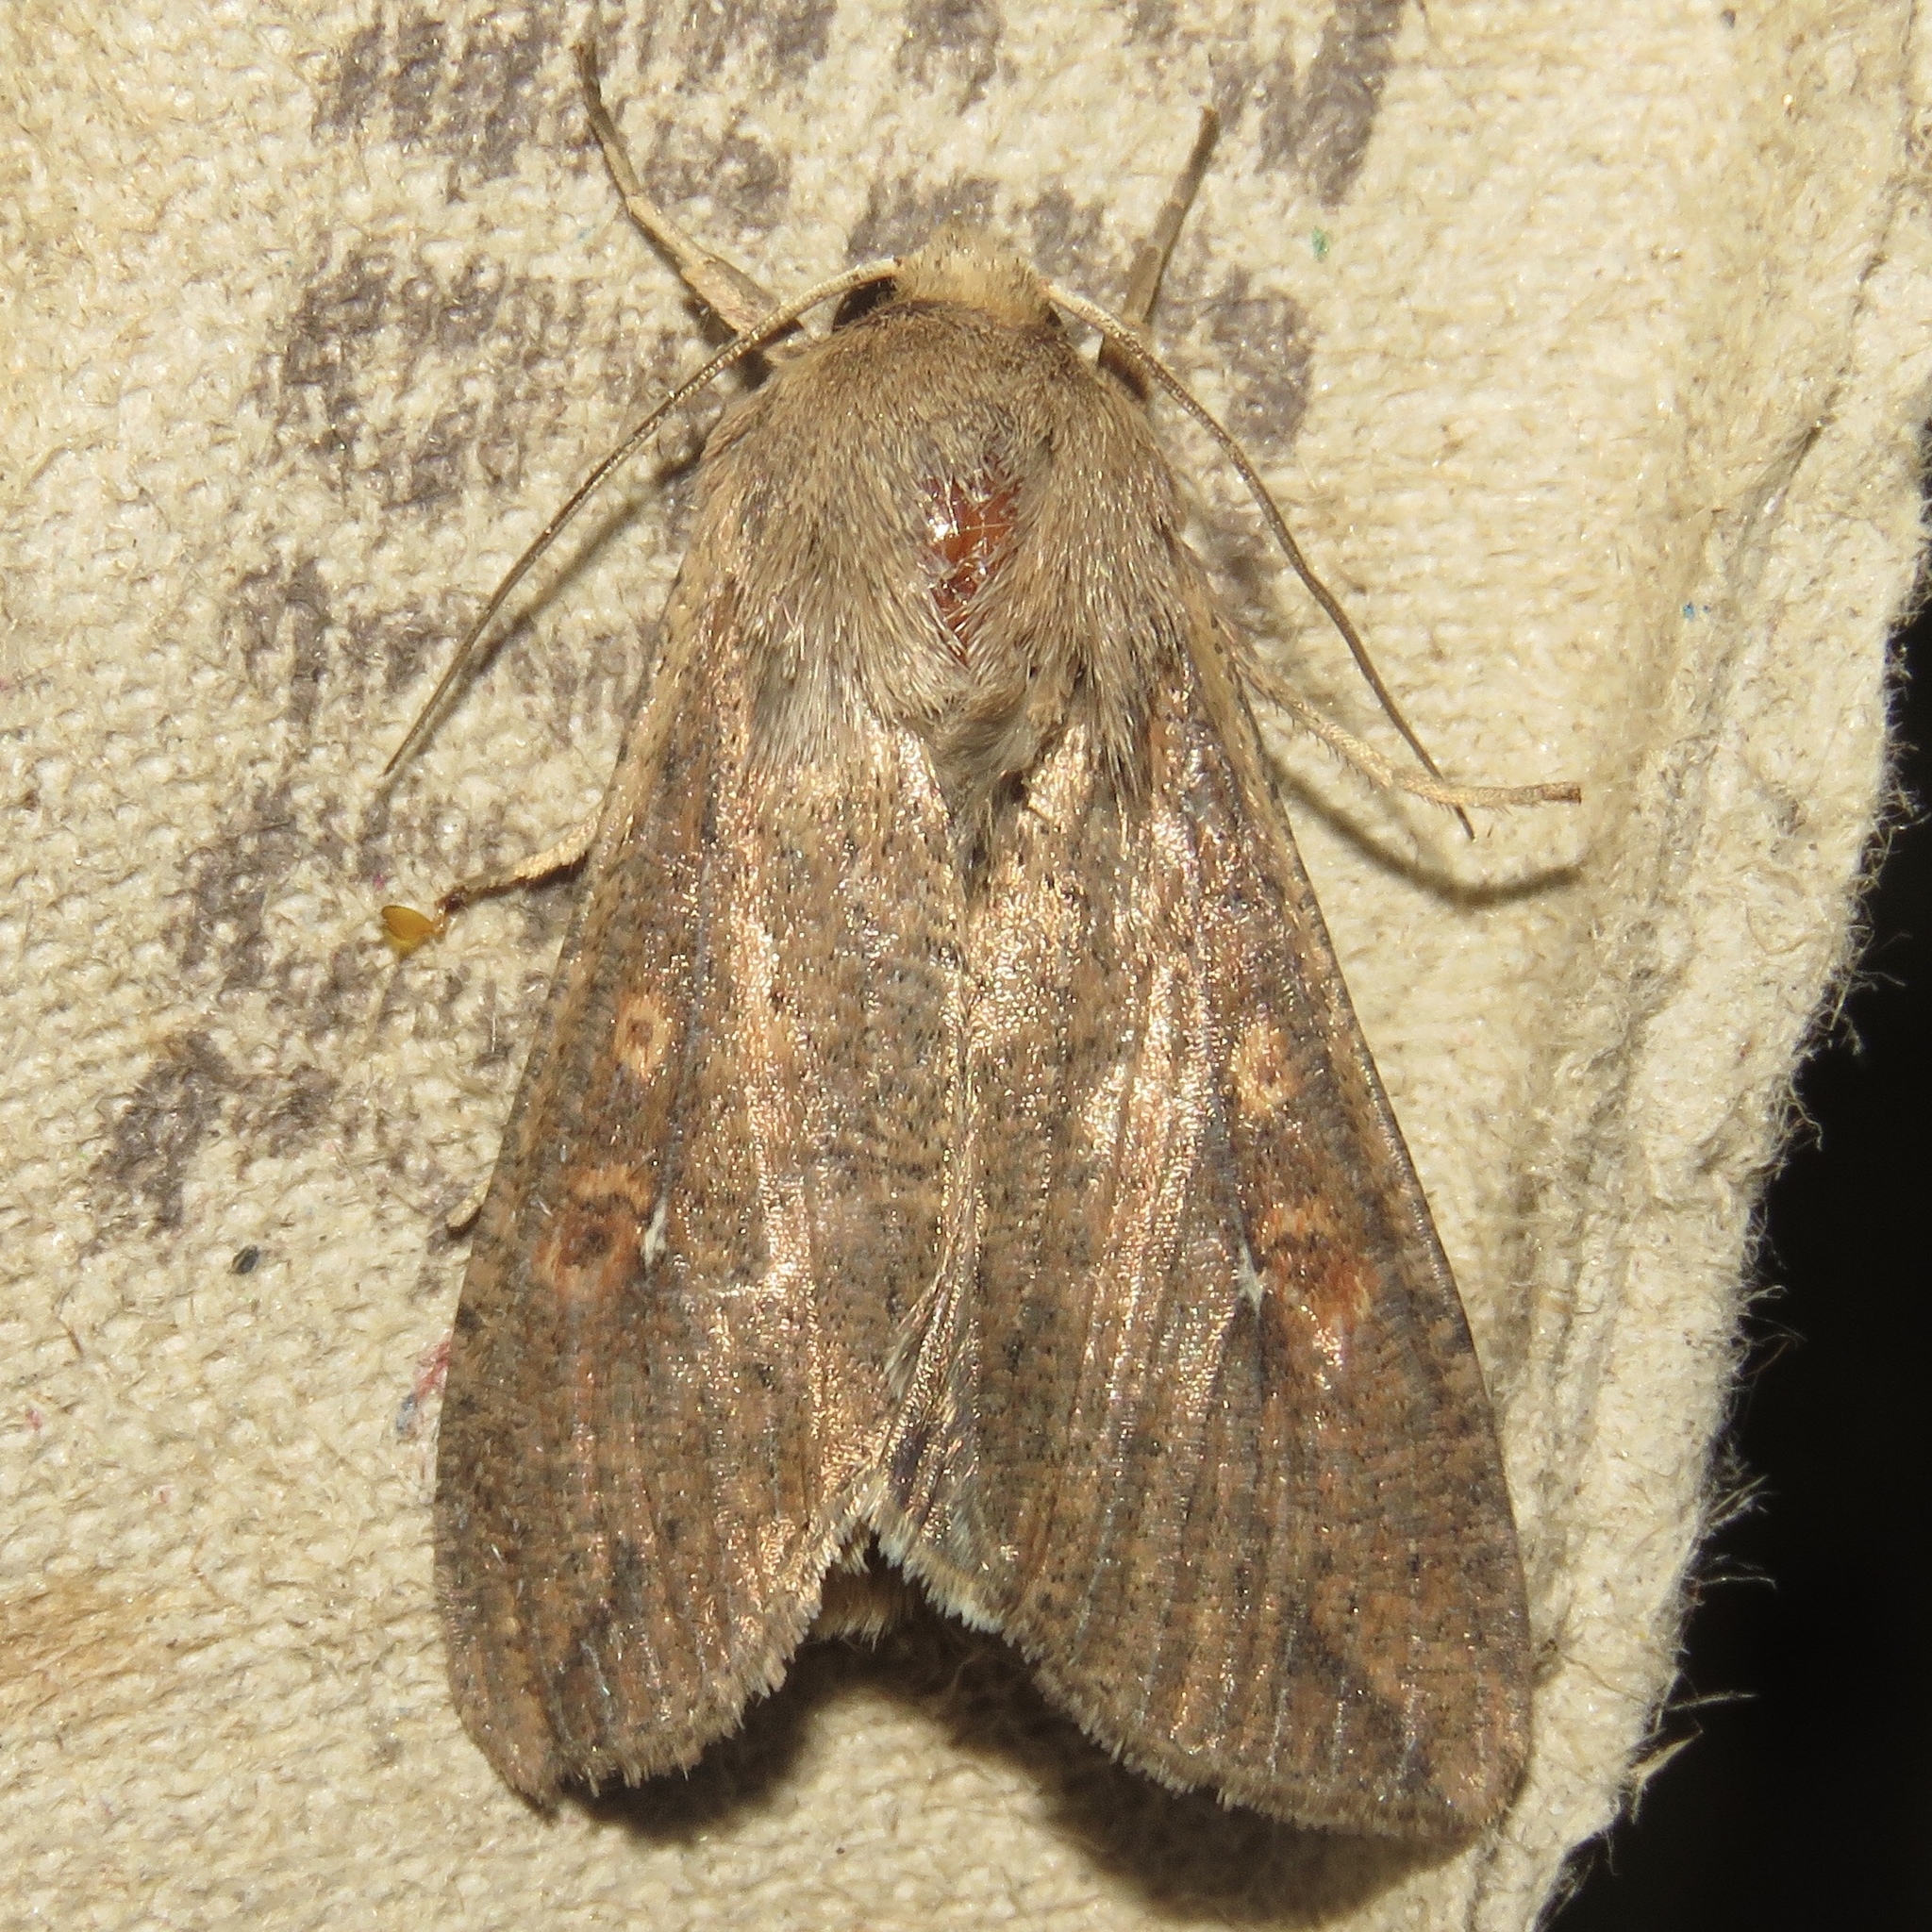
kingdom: Animalia
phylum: Arthropoda
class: Insecta
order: Lepidoptera
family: Noctuidae
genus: Mythimna
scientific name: Mythimna unipuncta
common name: White-speck
